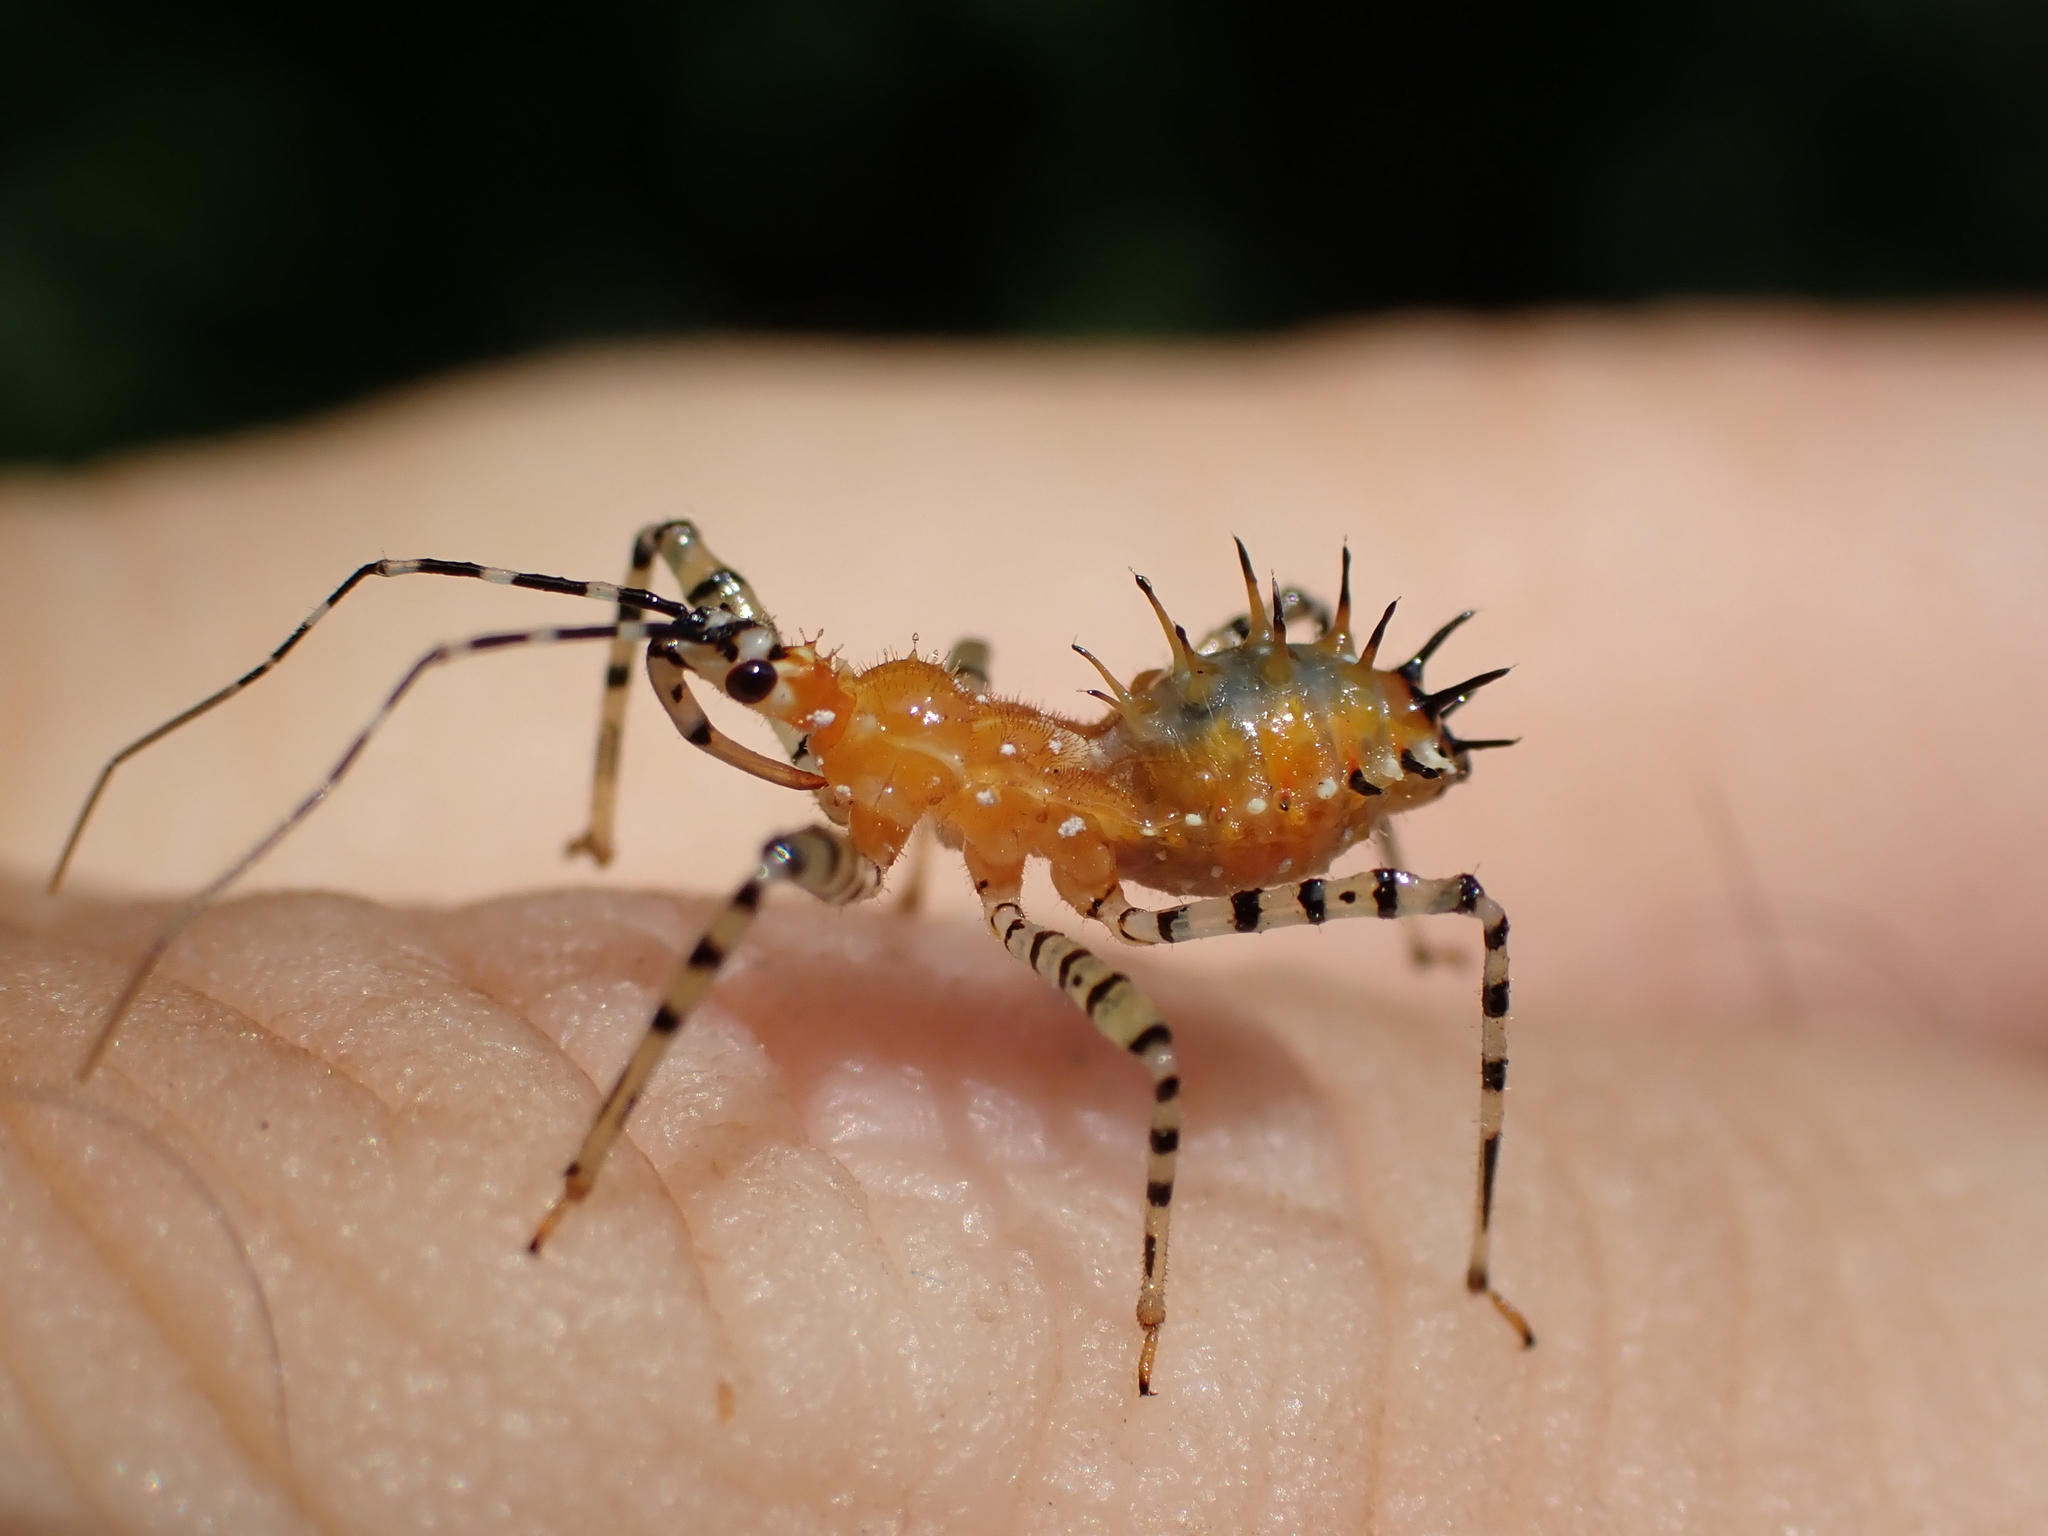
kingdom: Animalia
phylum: Arthropoda
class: Insecta
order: Hemiptera
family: Reduviidae
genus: Pselliopus
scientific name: Pselliopus cinctus
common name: Ringed assassin bug
